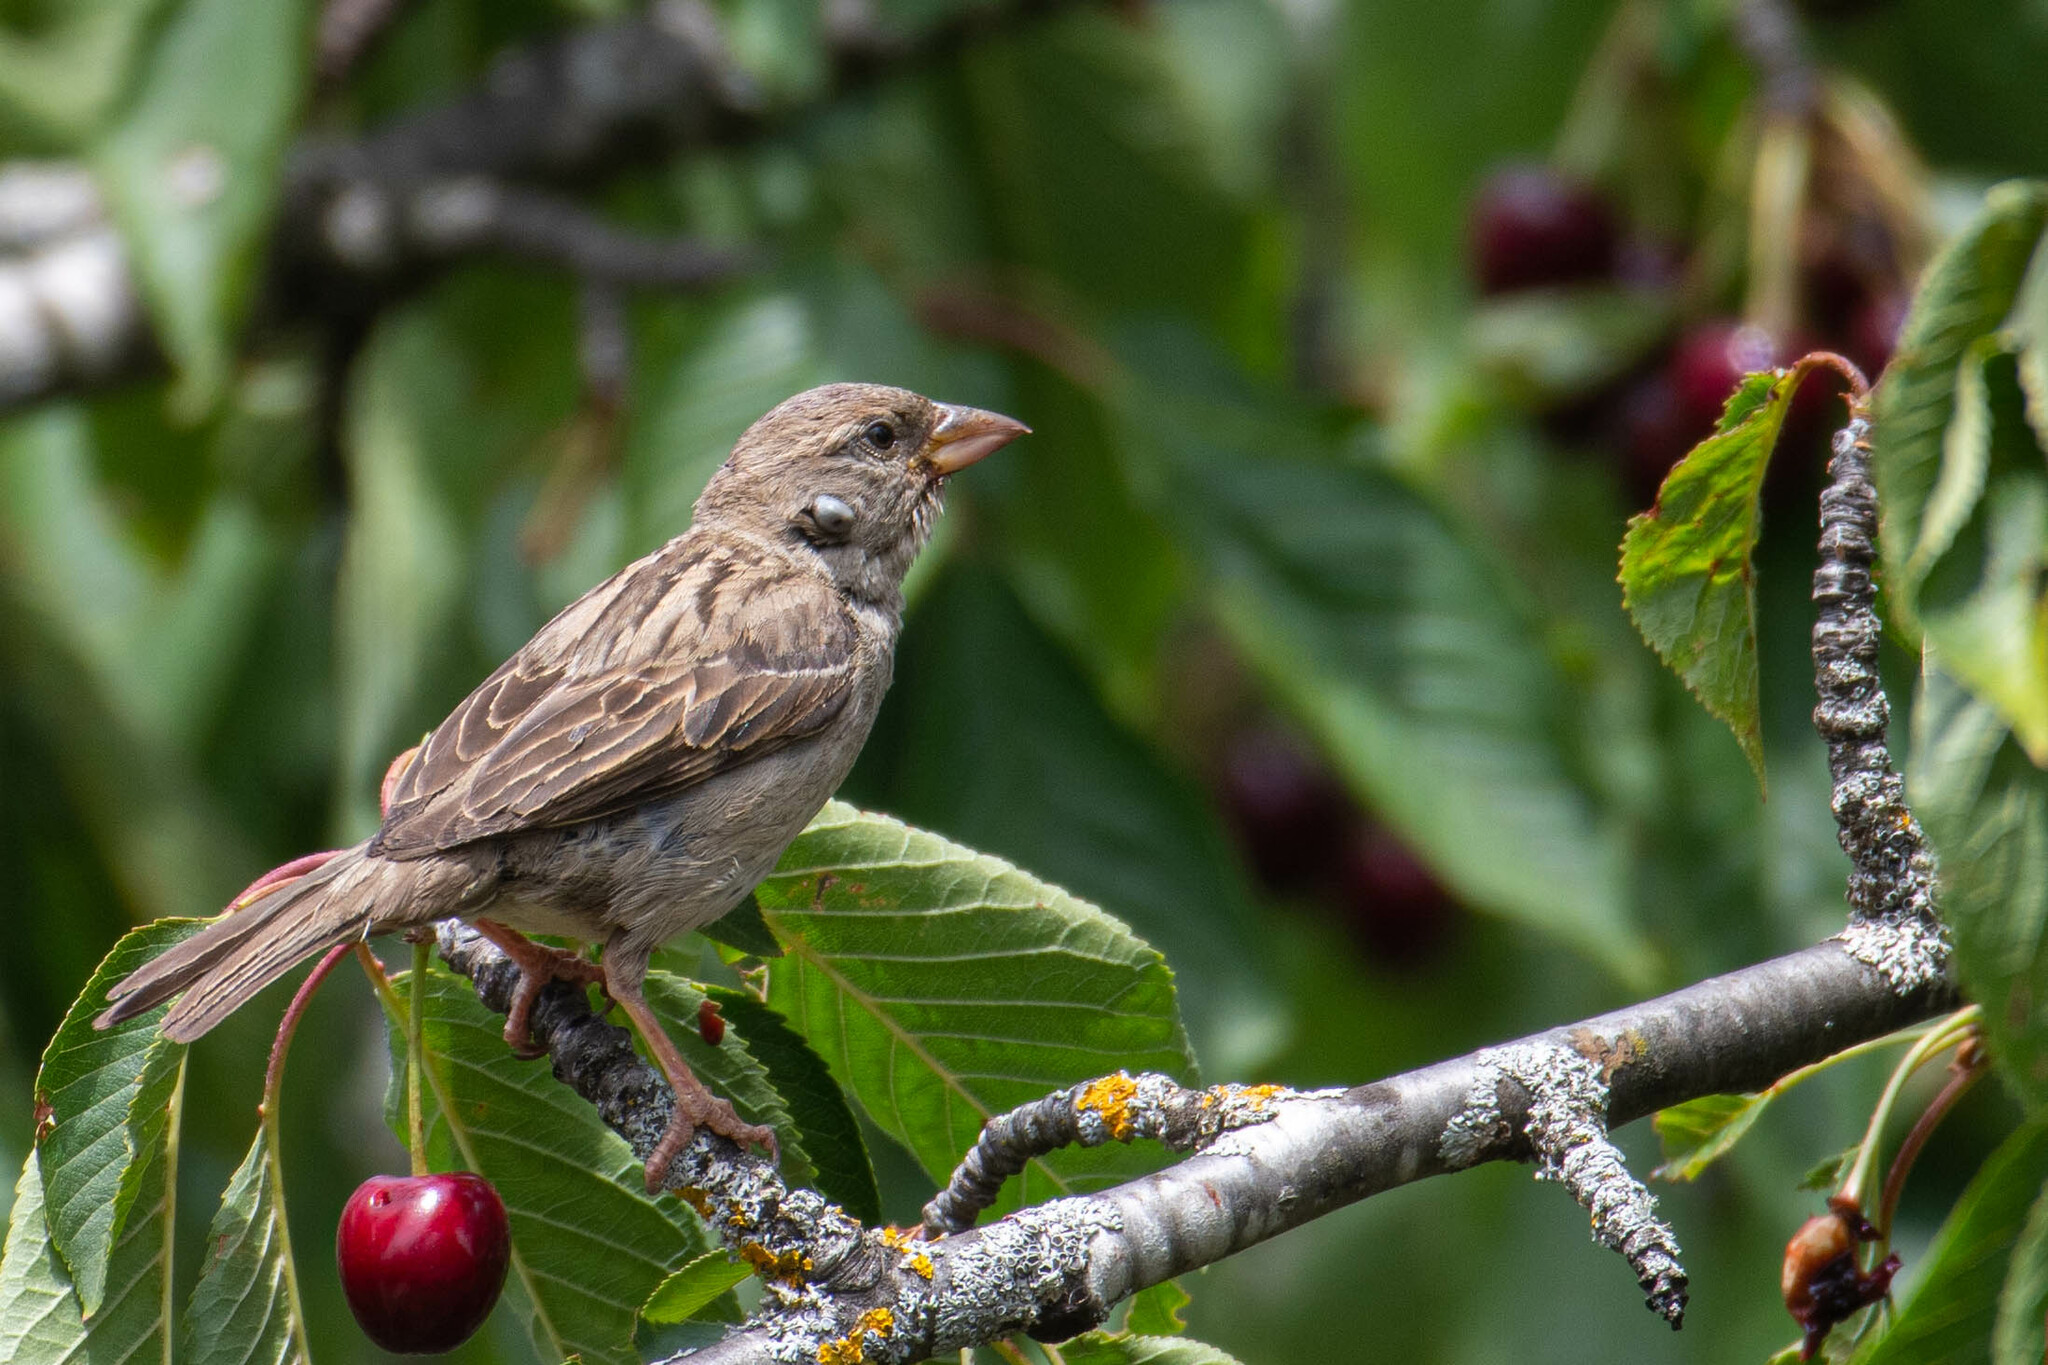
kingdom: Animalia
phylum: Chordata
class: Aves
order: Passeriformes
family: Passeridae
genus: Passer
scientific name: Passer domesticus
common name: House sparrow
